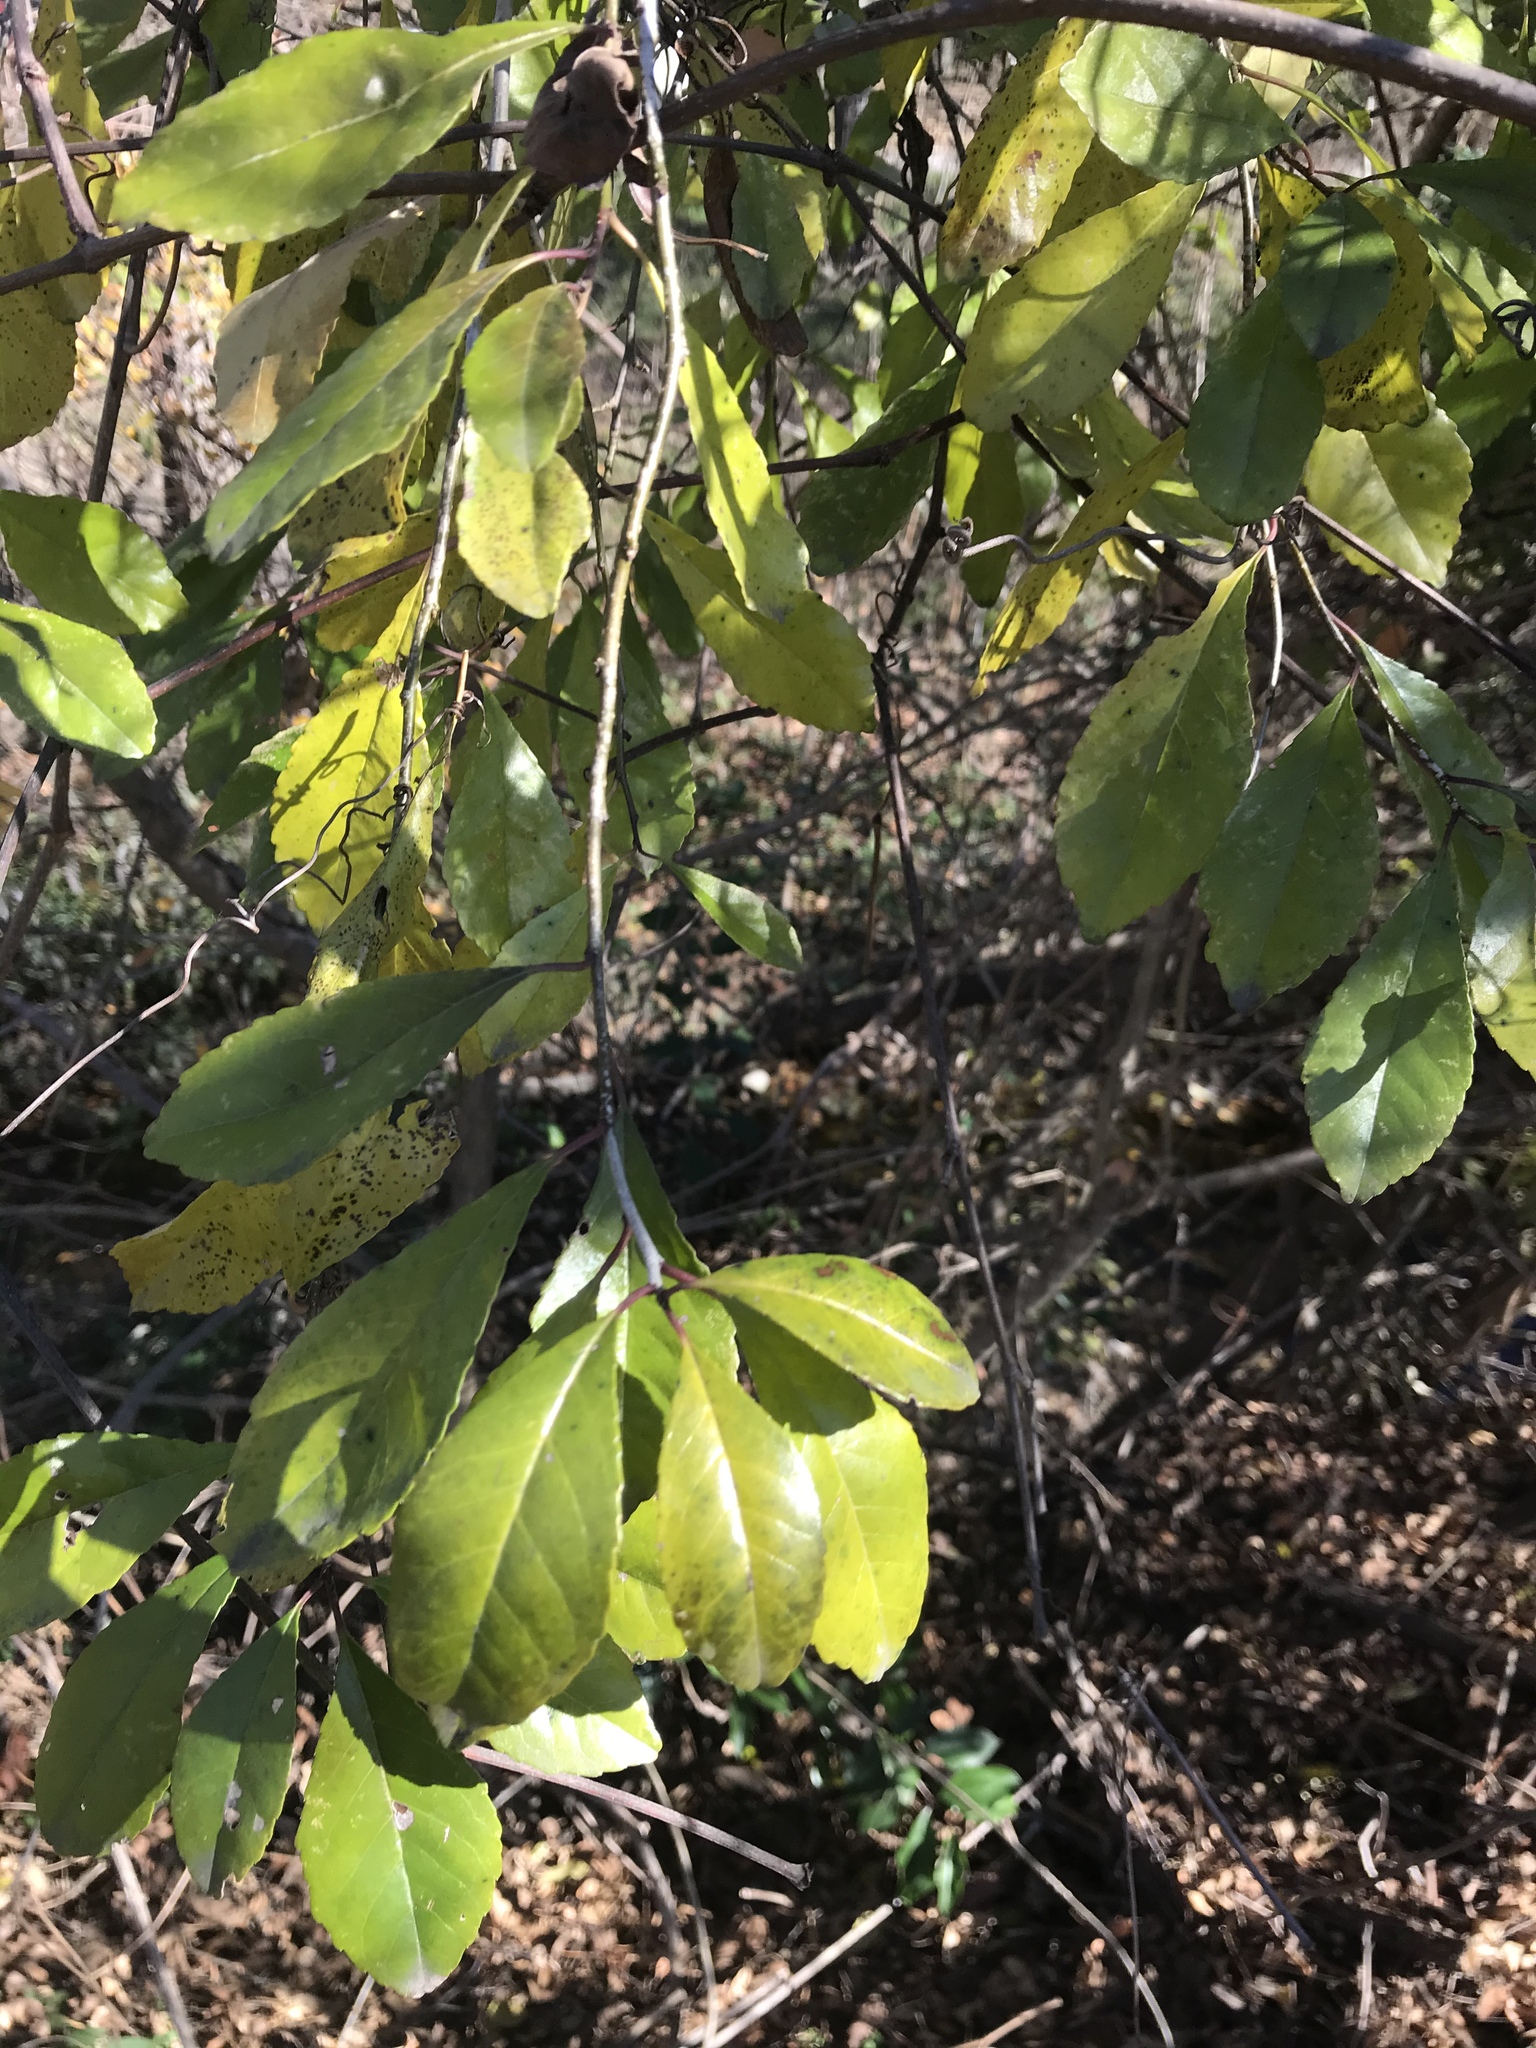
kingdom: Plantae
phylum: Tracheophyta
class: Magnoliopsida
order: Aquifoliales
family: Aquifoliaceae
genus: Ilex
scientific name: Ilex decidua
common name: Possum-haw
